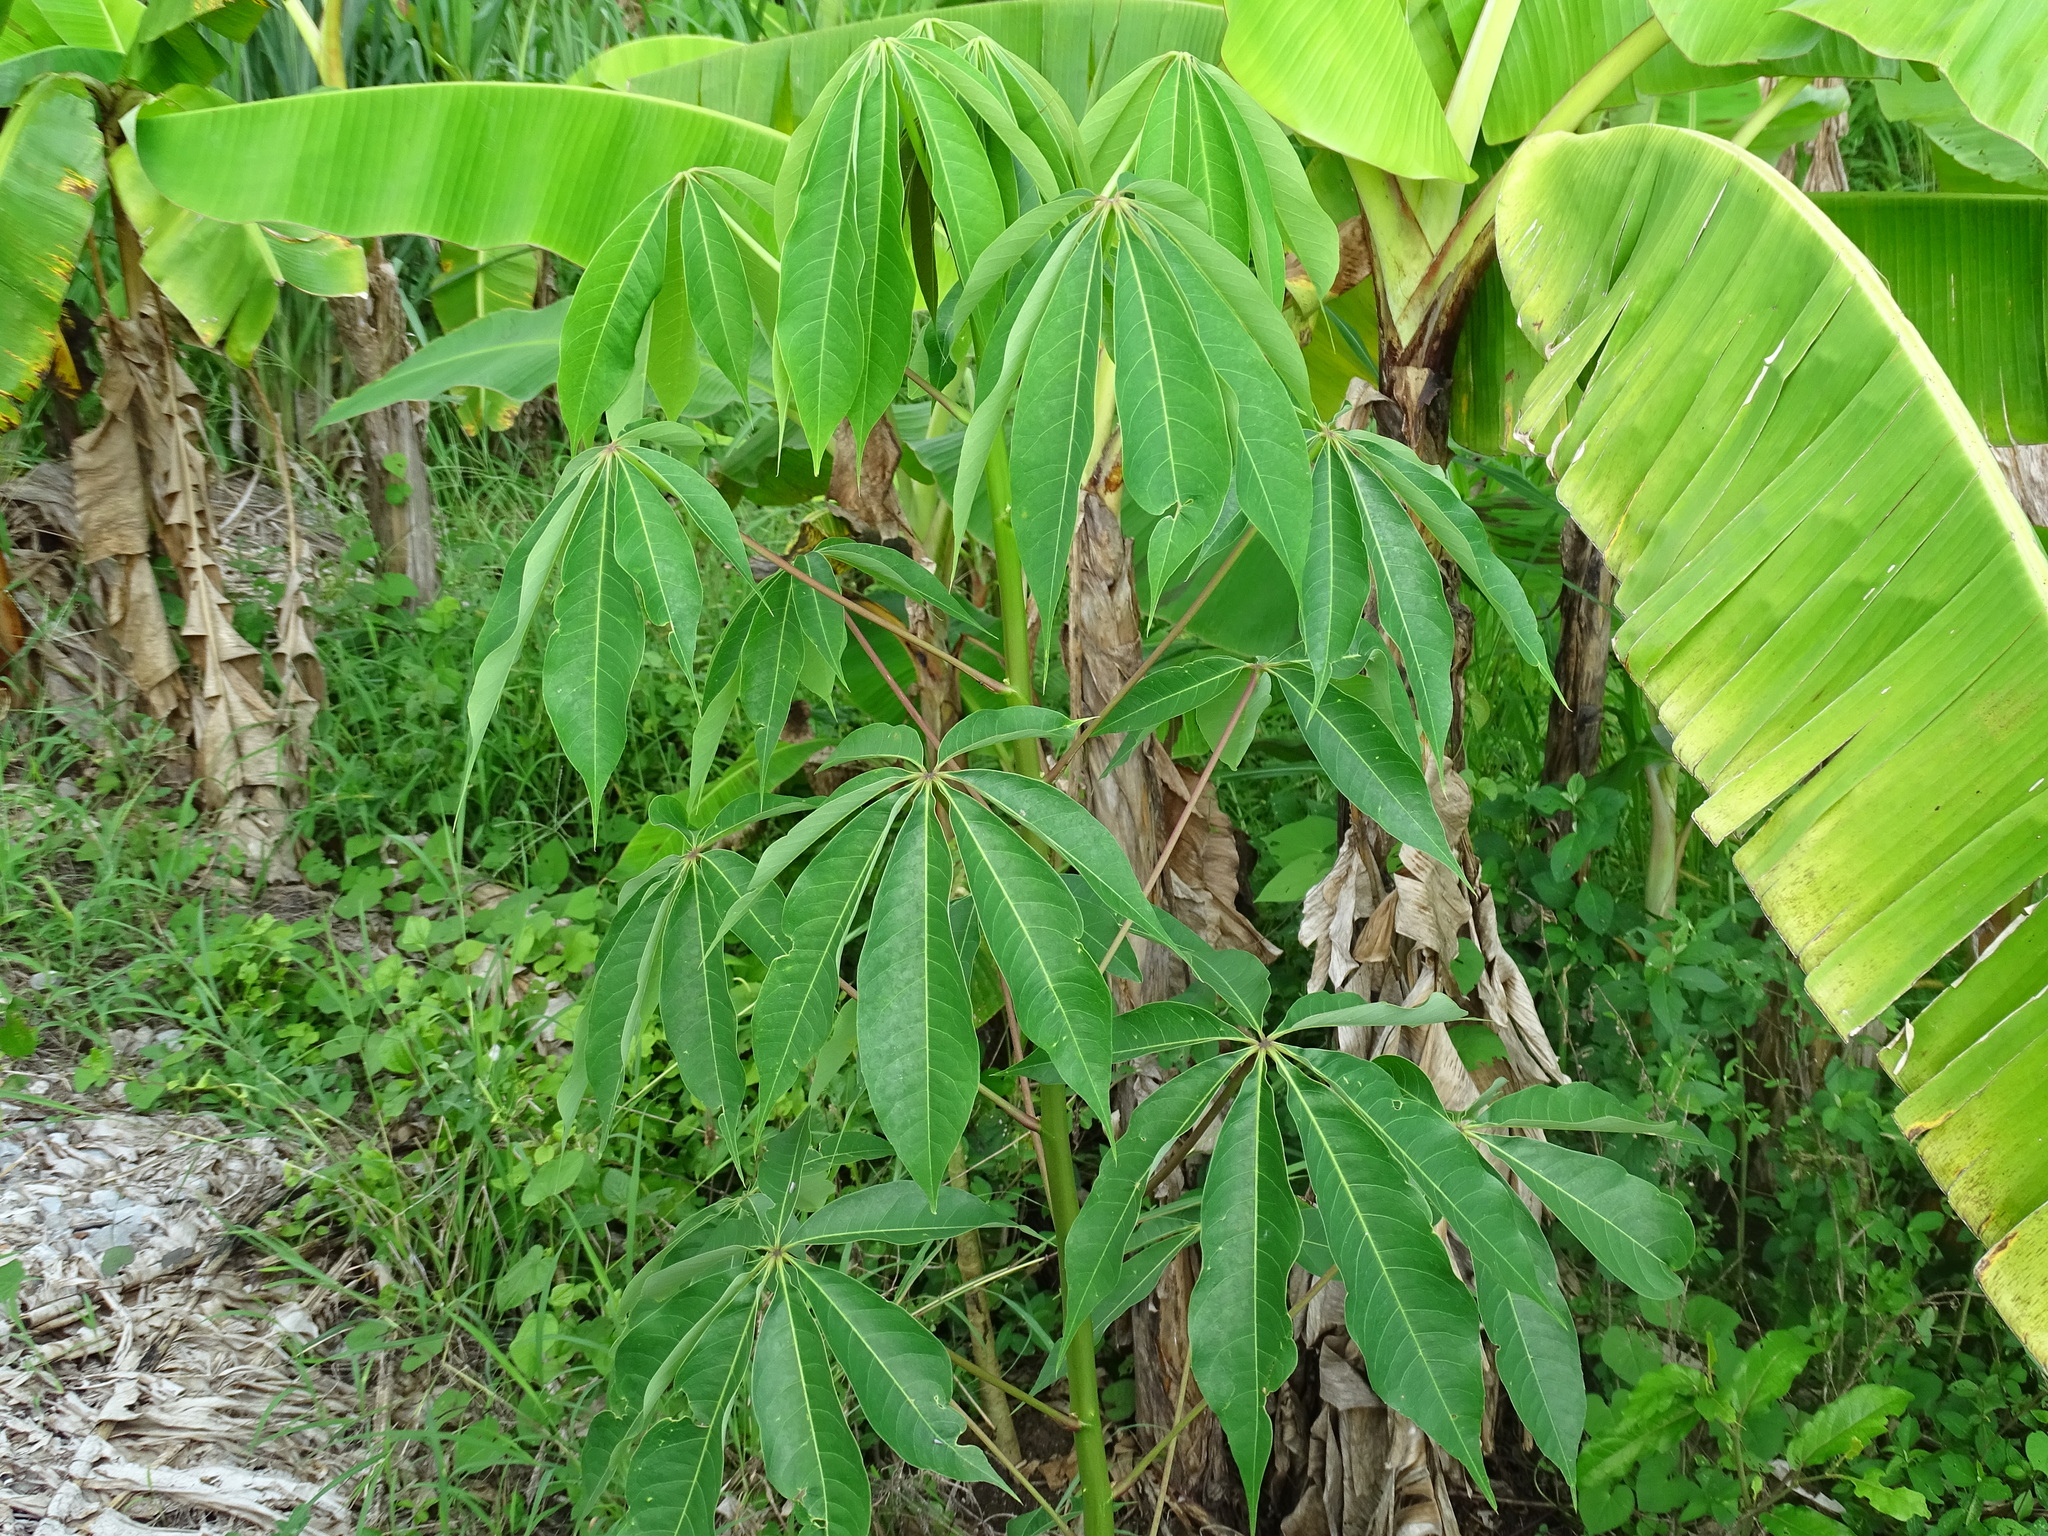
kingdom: Plantae
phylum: Tracheophyta
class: Magnoliopsida
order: Malpighiales
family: Euphorbiaceae
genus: Manihot
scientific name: Manihot esculenta
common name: Cassava
